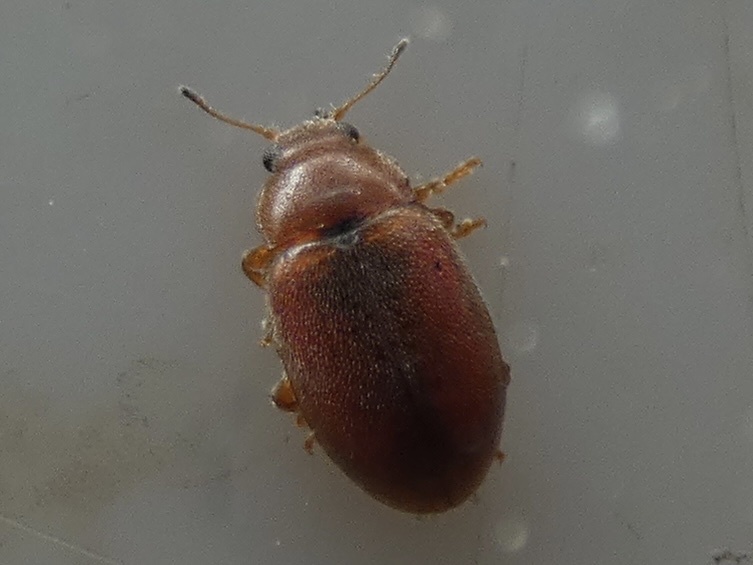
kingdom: Animalia
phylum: Arthropoda
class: Insecta
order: Coleoptera
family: Coccinellidae
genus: Coccidula
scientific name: Coccidula rufa
